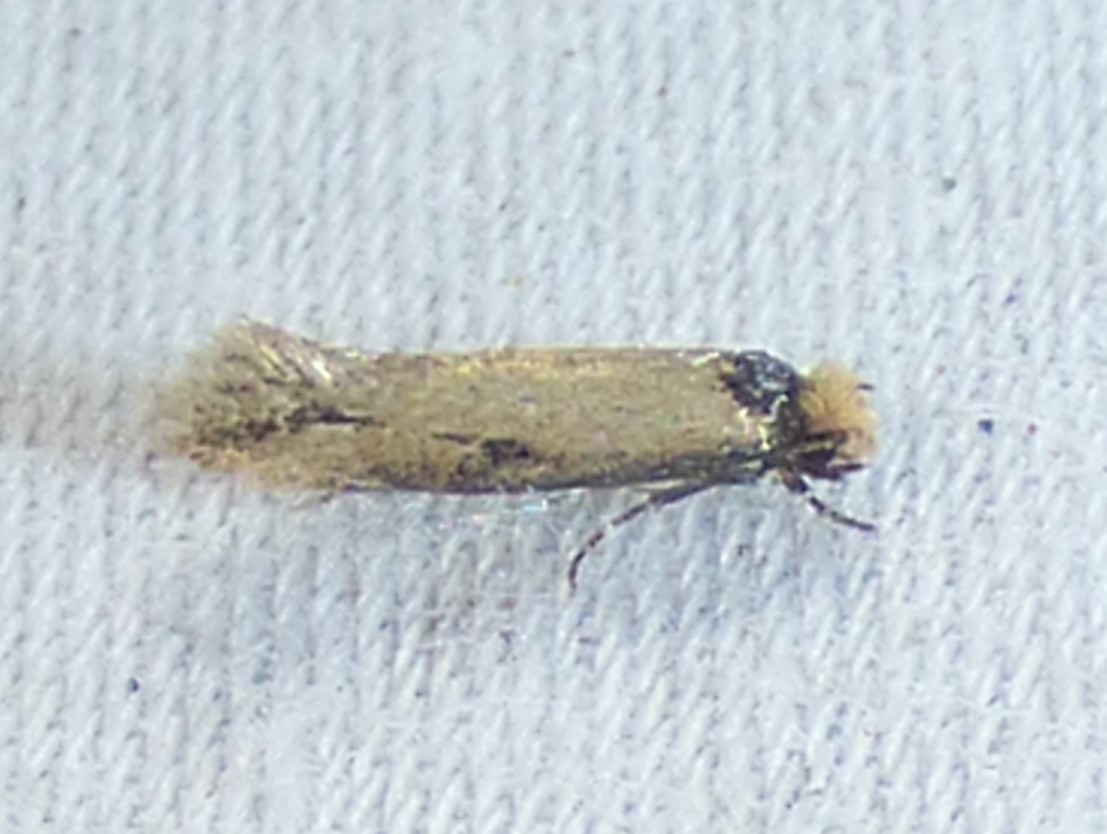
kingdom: Animalia
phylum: Arthropoda
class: Insecta
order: Lepidoptera
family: Meessiidae
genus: Homostinea
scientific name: Homostinea curviliniella
